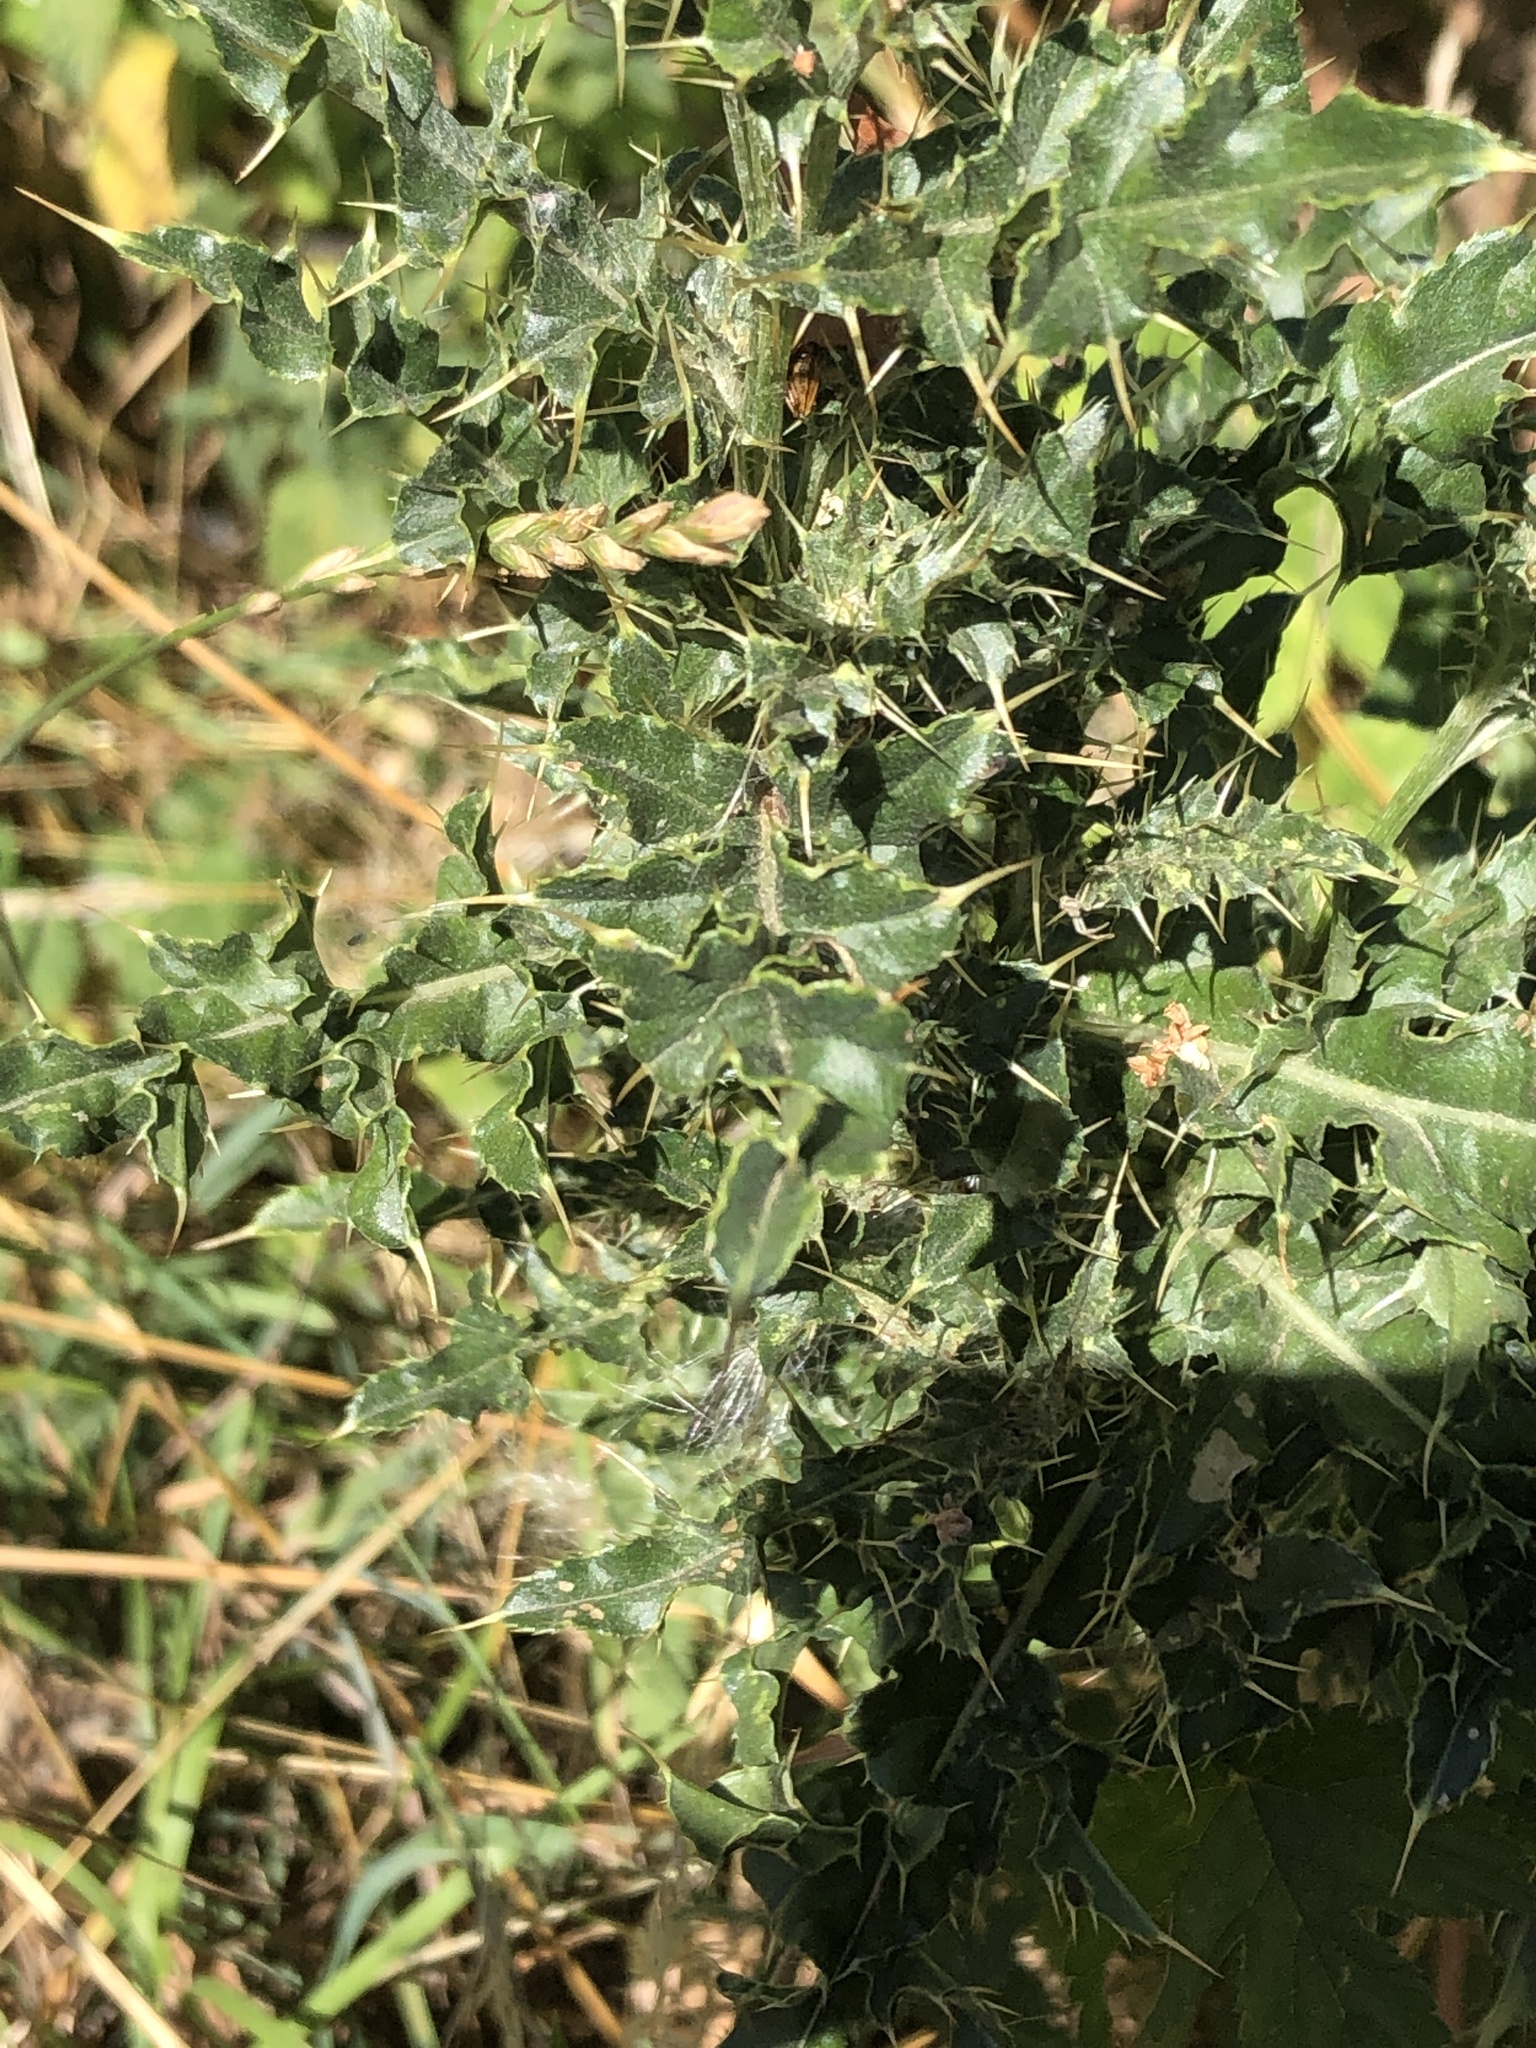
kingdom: Plantae
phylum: Tracheophyta
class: Magnoliopsida
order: Asterales
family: Asteraceae
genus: Cirsium
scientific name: Cirsium arvense
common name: Creeping thistle
